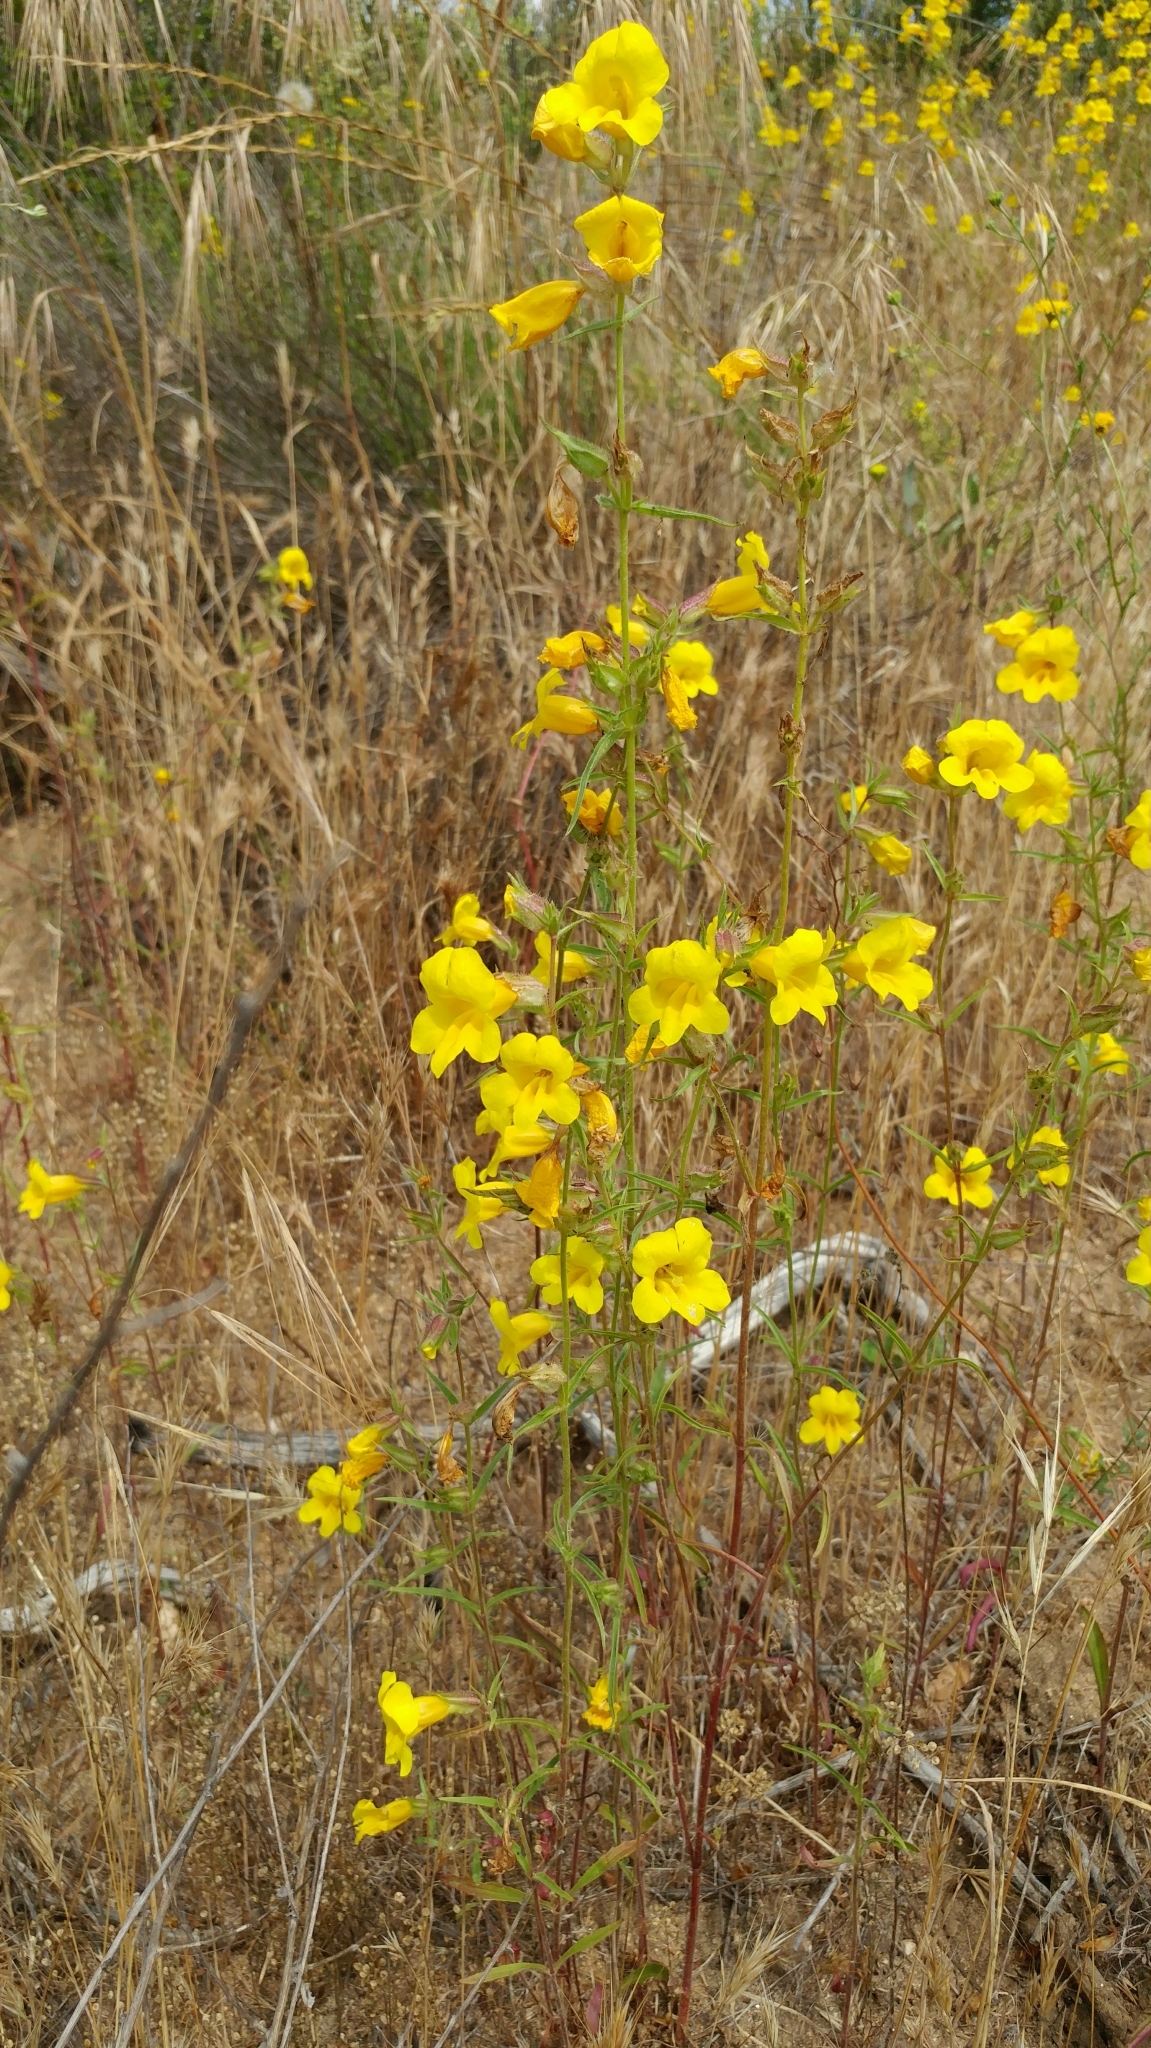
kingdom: Plantae
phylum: Tracheophyta
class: Magnoliopsida
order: Lamiales
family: Phrymaceae
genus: Diplacus
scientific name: Diplacus brevipes
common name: Wide-throat yellow monkey-flower
